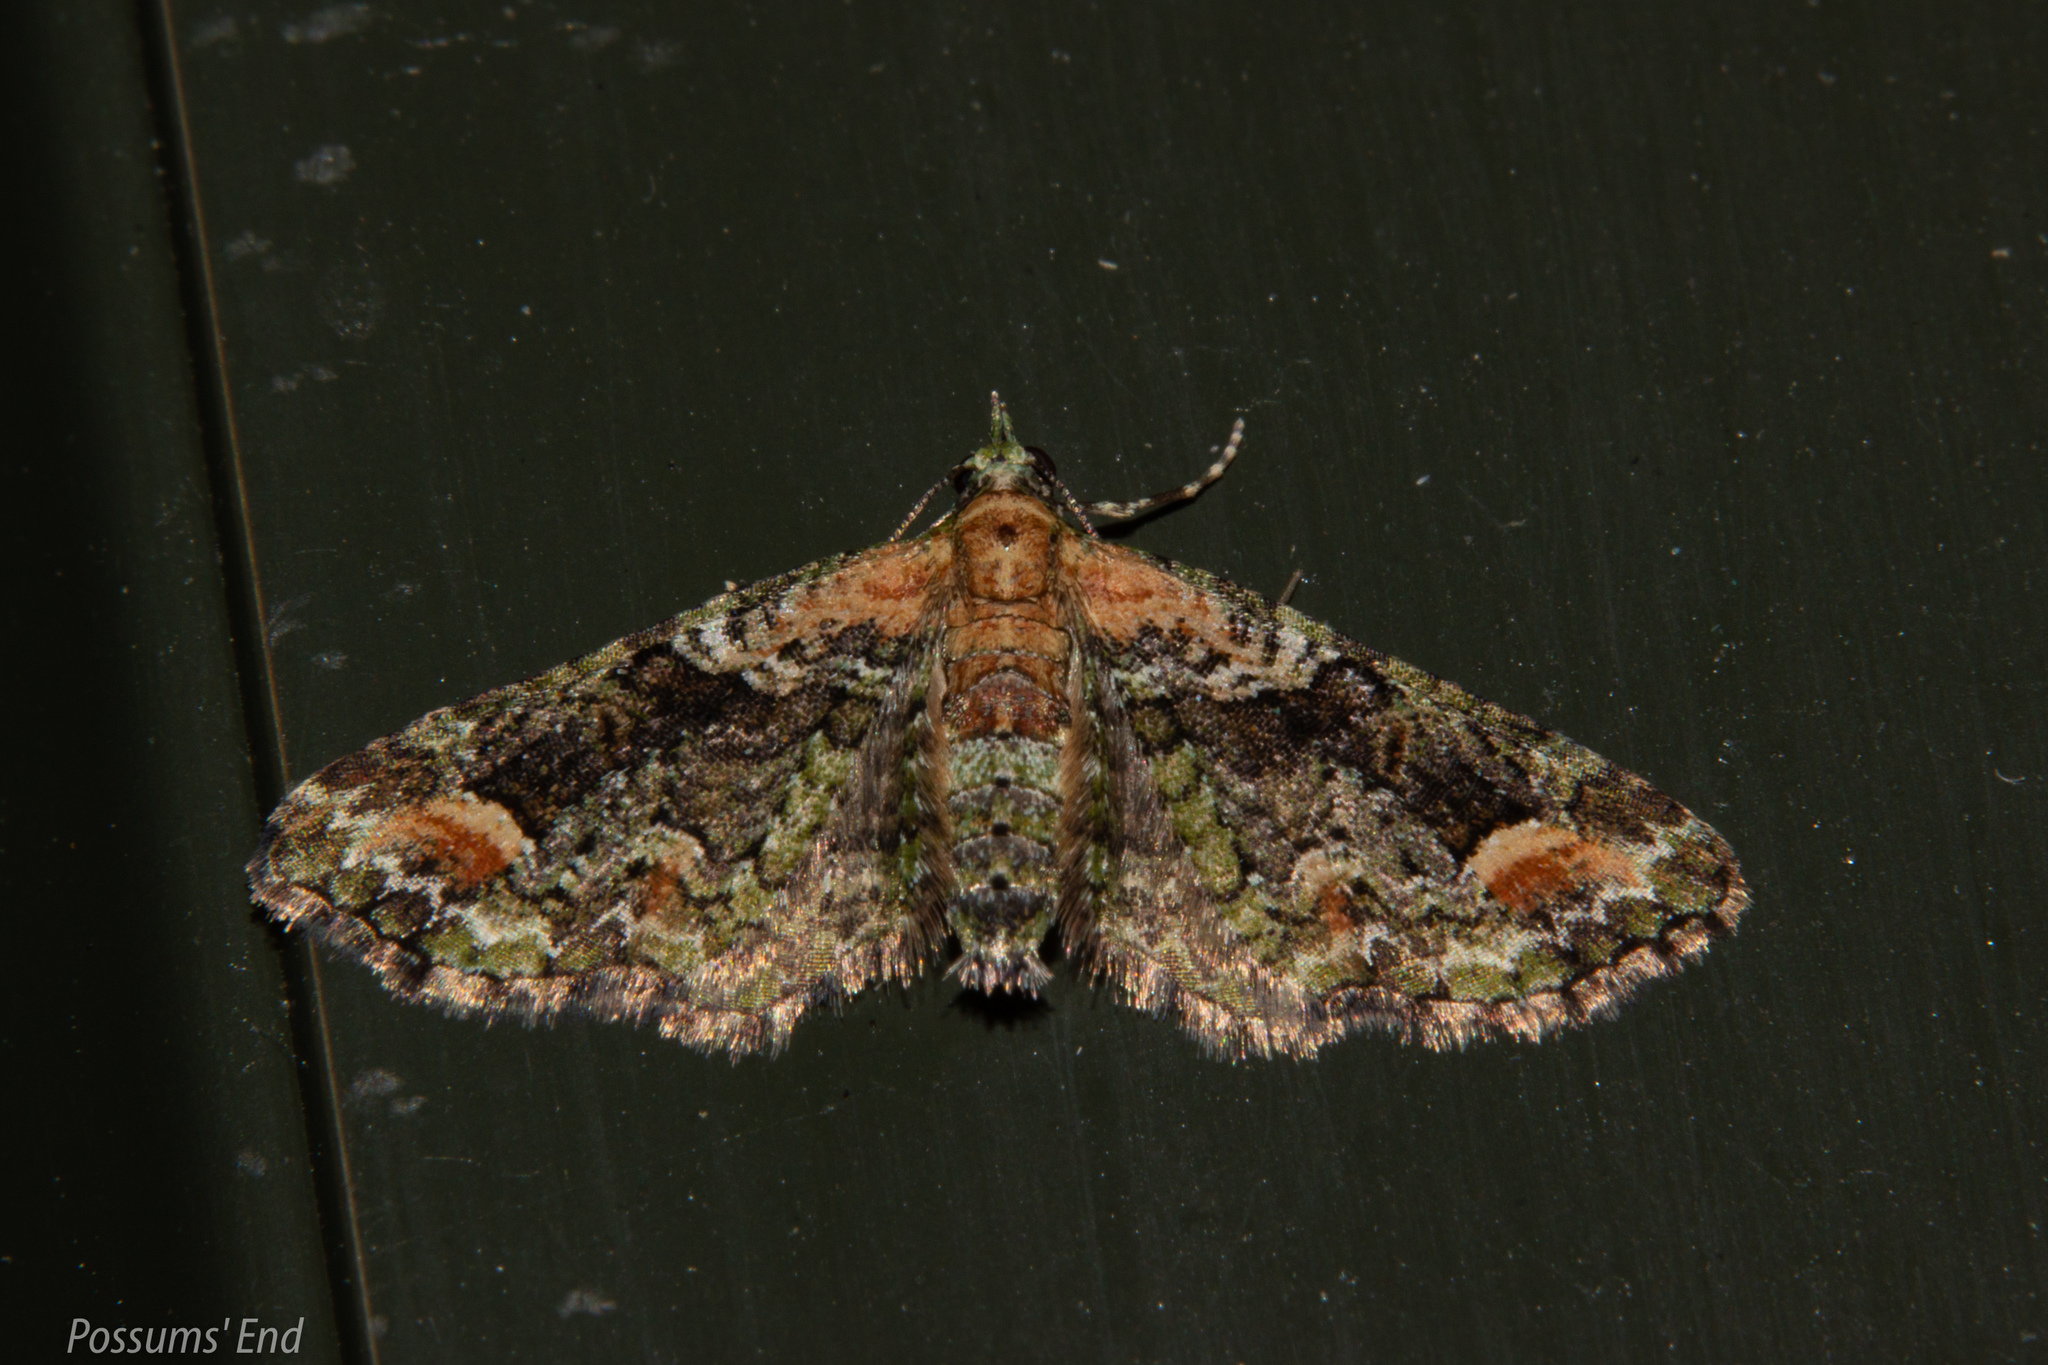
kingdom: Animalia
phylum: Arthropoda
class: Insecta
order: Lepidoptera
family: Geometridae
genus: Idaea
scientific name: Idaea mutanda
